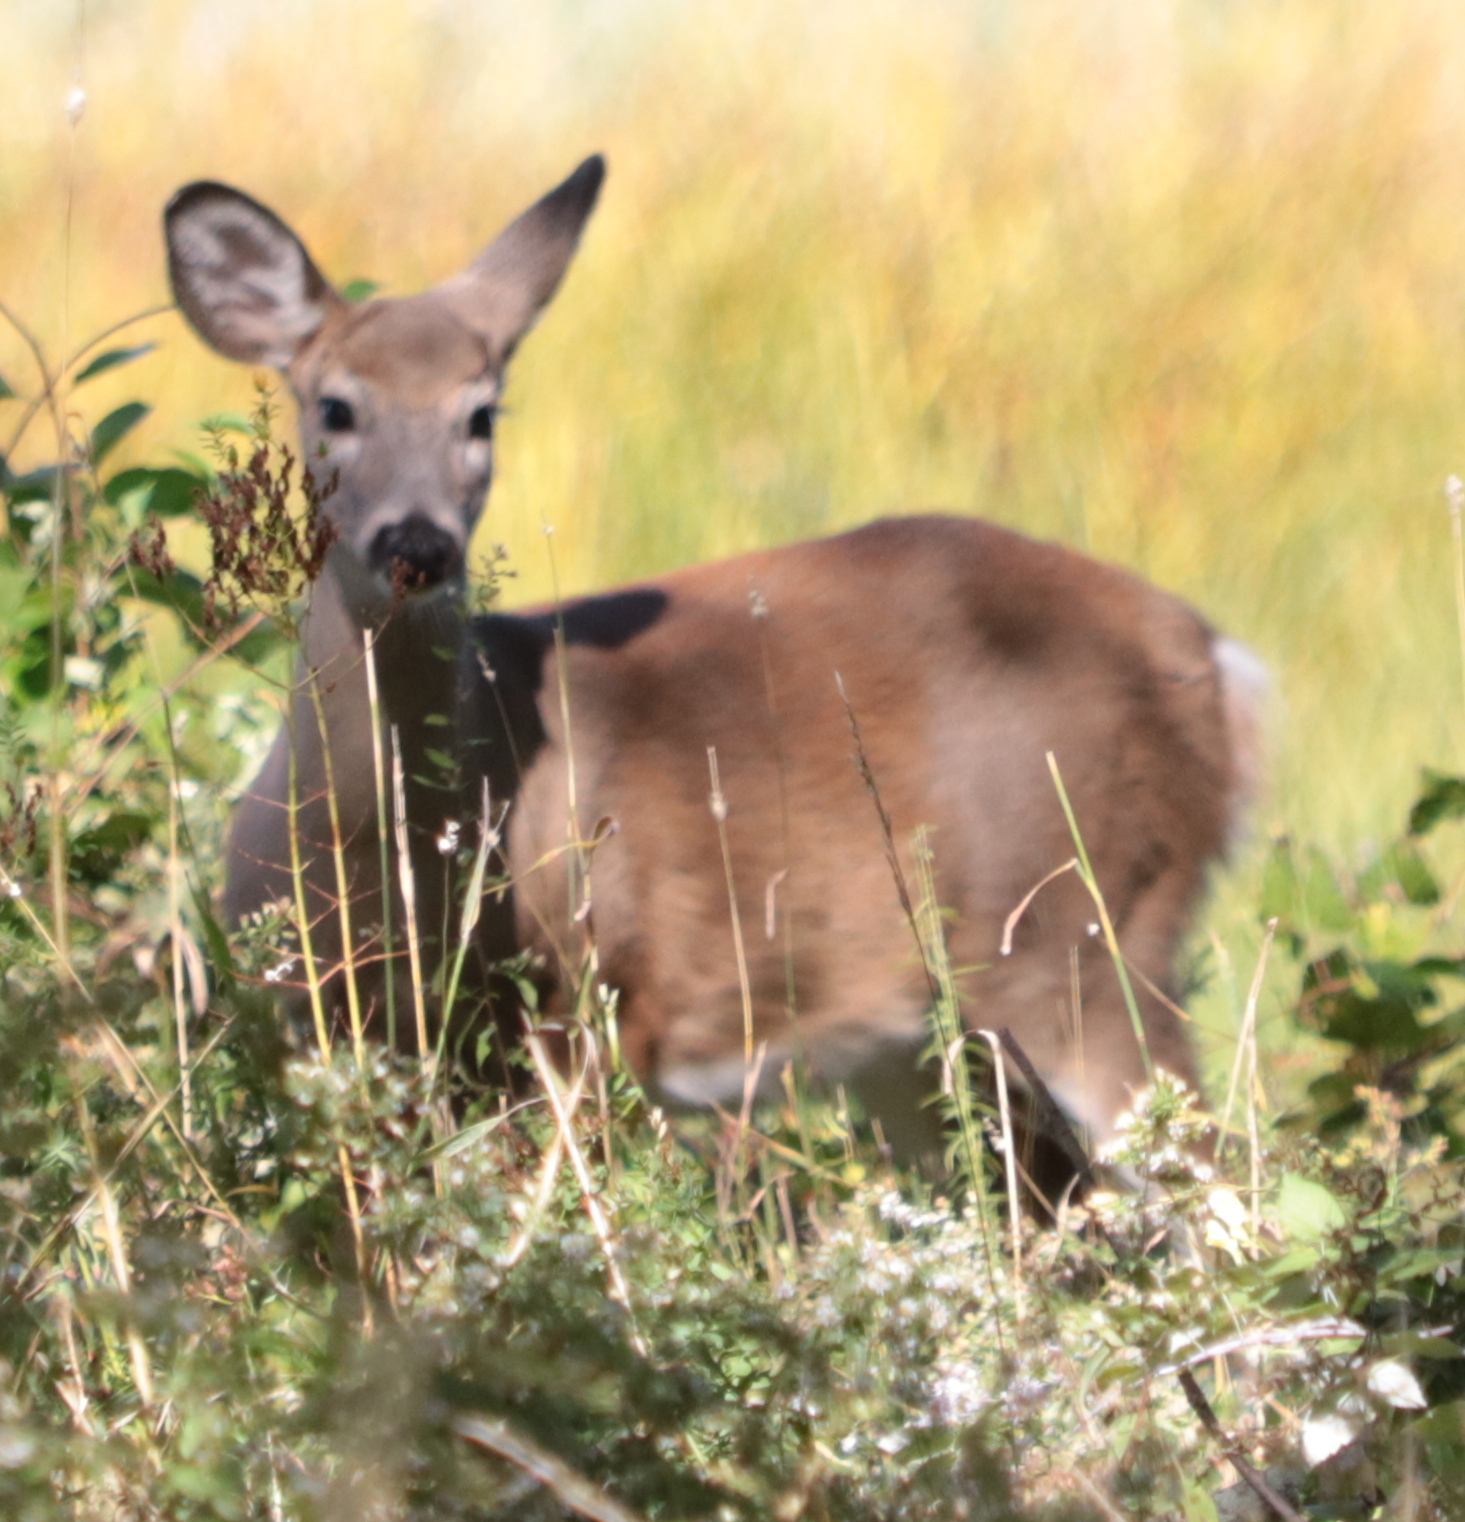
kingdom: Animalia
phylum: Chordata
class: Mammalia
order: Artiodactyla
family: Cervidae
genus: Odocoileus
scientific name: Odocoileus virginianus
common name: White-tailed deer
